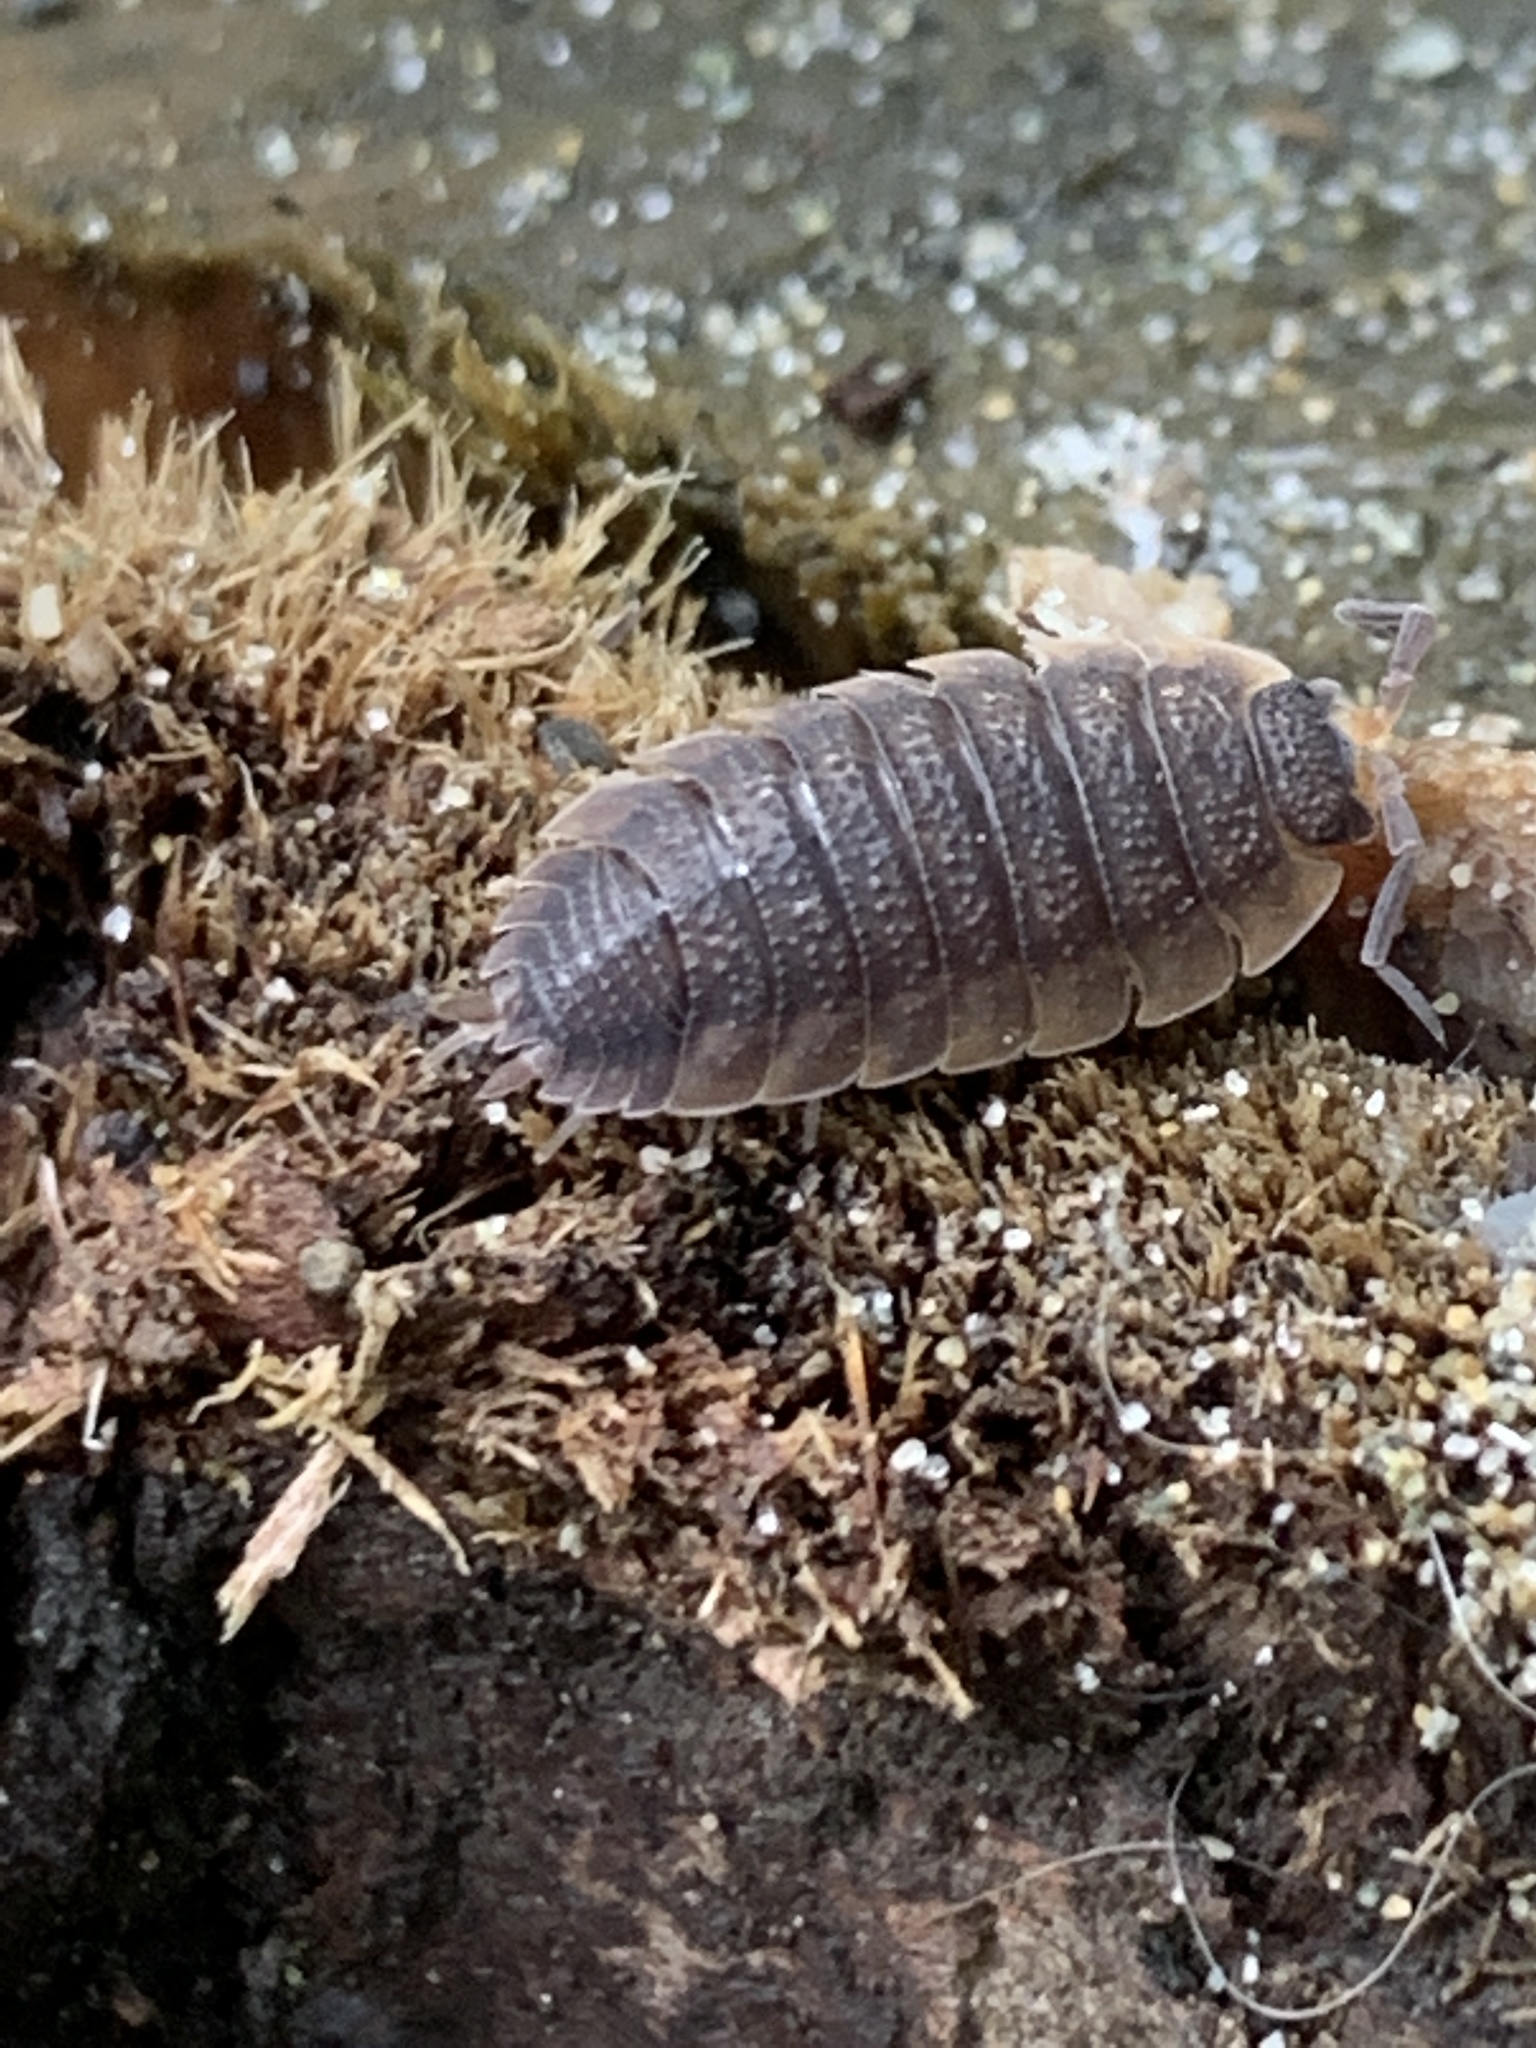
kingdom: Animalia
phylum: Arthropoda
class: Malacostraca
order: Isopoda
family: Porcellionidae
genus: Porcellio
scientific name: Porcellio scaber
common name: Common rough woodlouse
